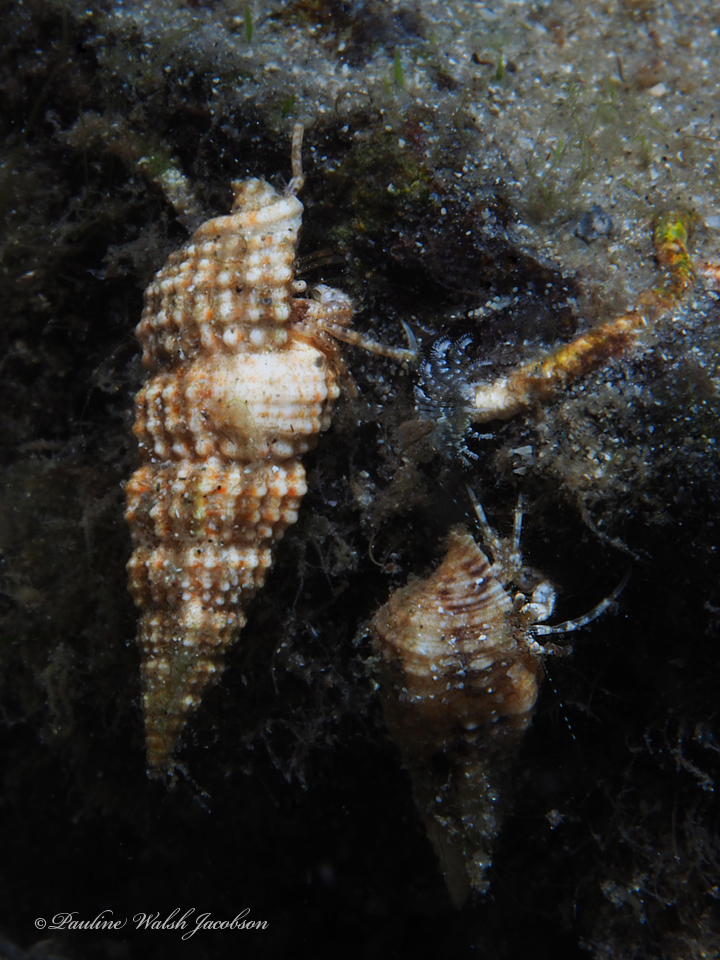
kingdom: Animalia
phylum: Arthropoda
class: Malacostraca
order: Decapoda
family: Paguridae
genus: Pagurus
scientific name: Pagurus maclaughlinae
